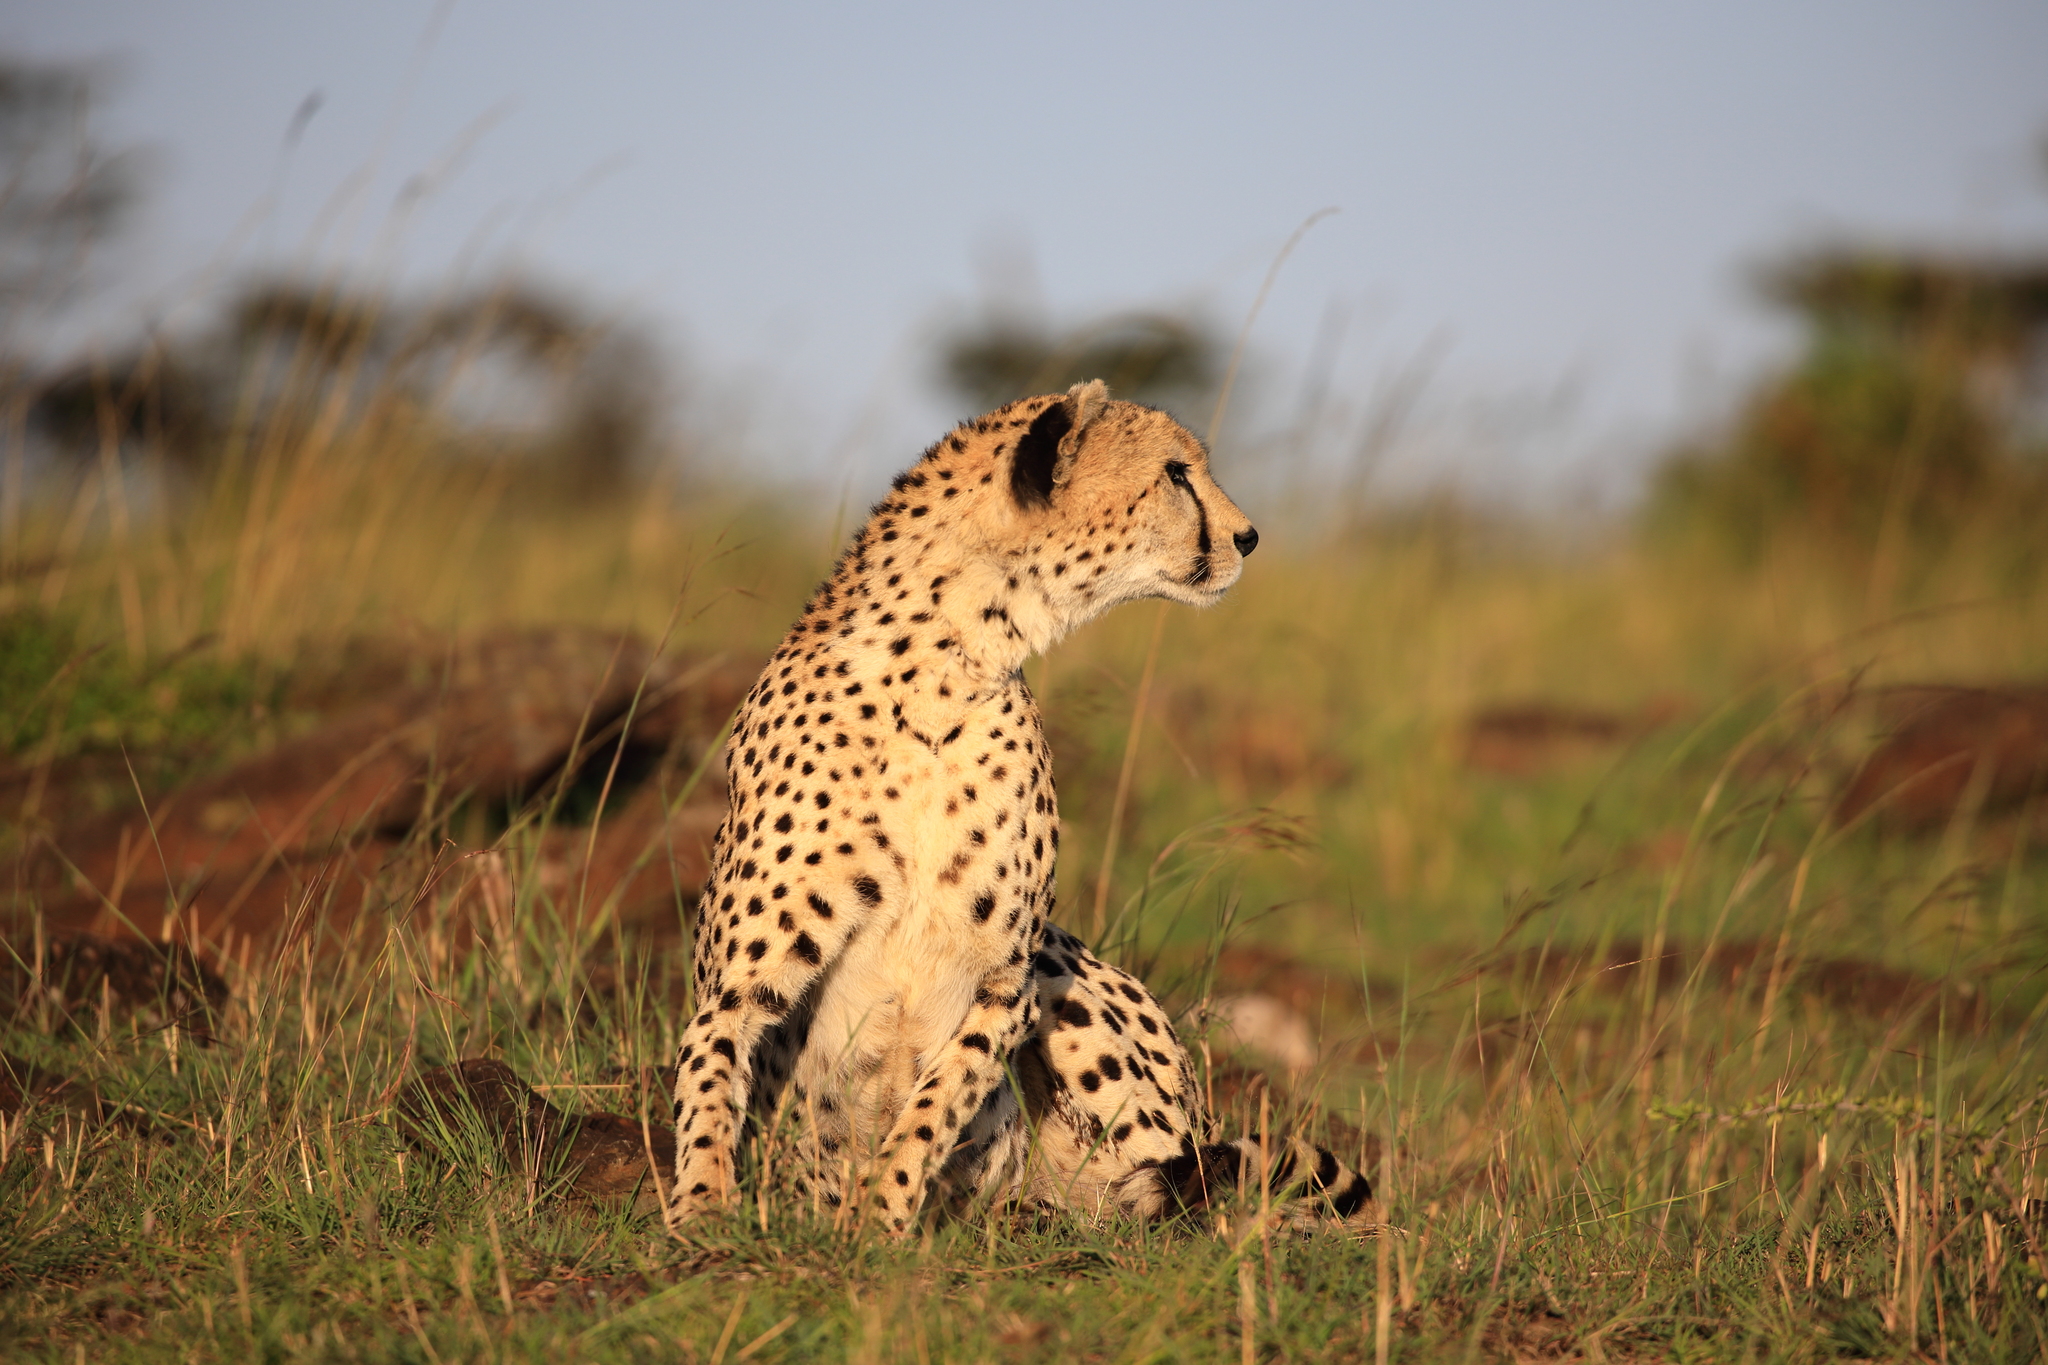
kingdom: Animalia
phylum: Chordata
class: Mammalia
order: Carnivora
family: Felidae
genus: Acinonyx
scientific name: Acinonyx jubatus
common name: Cheetah
